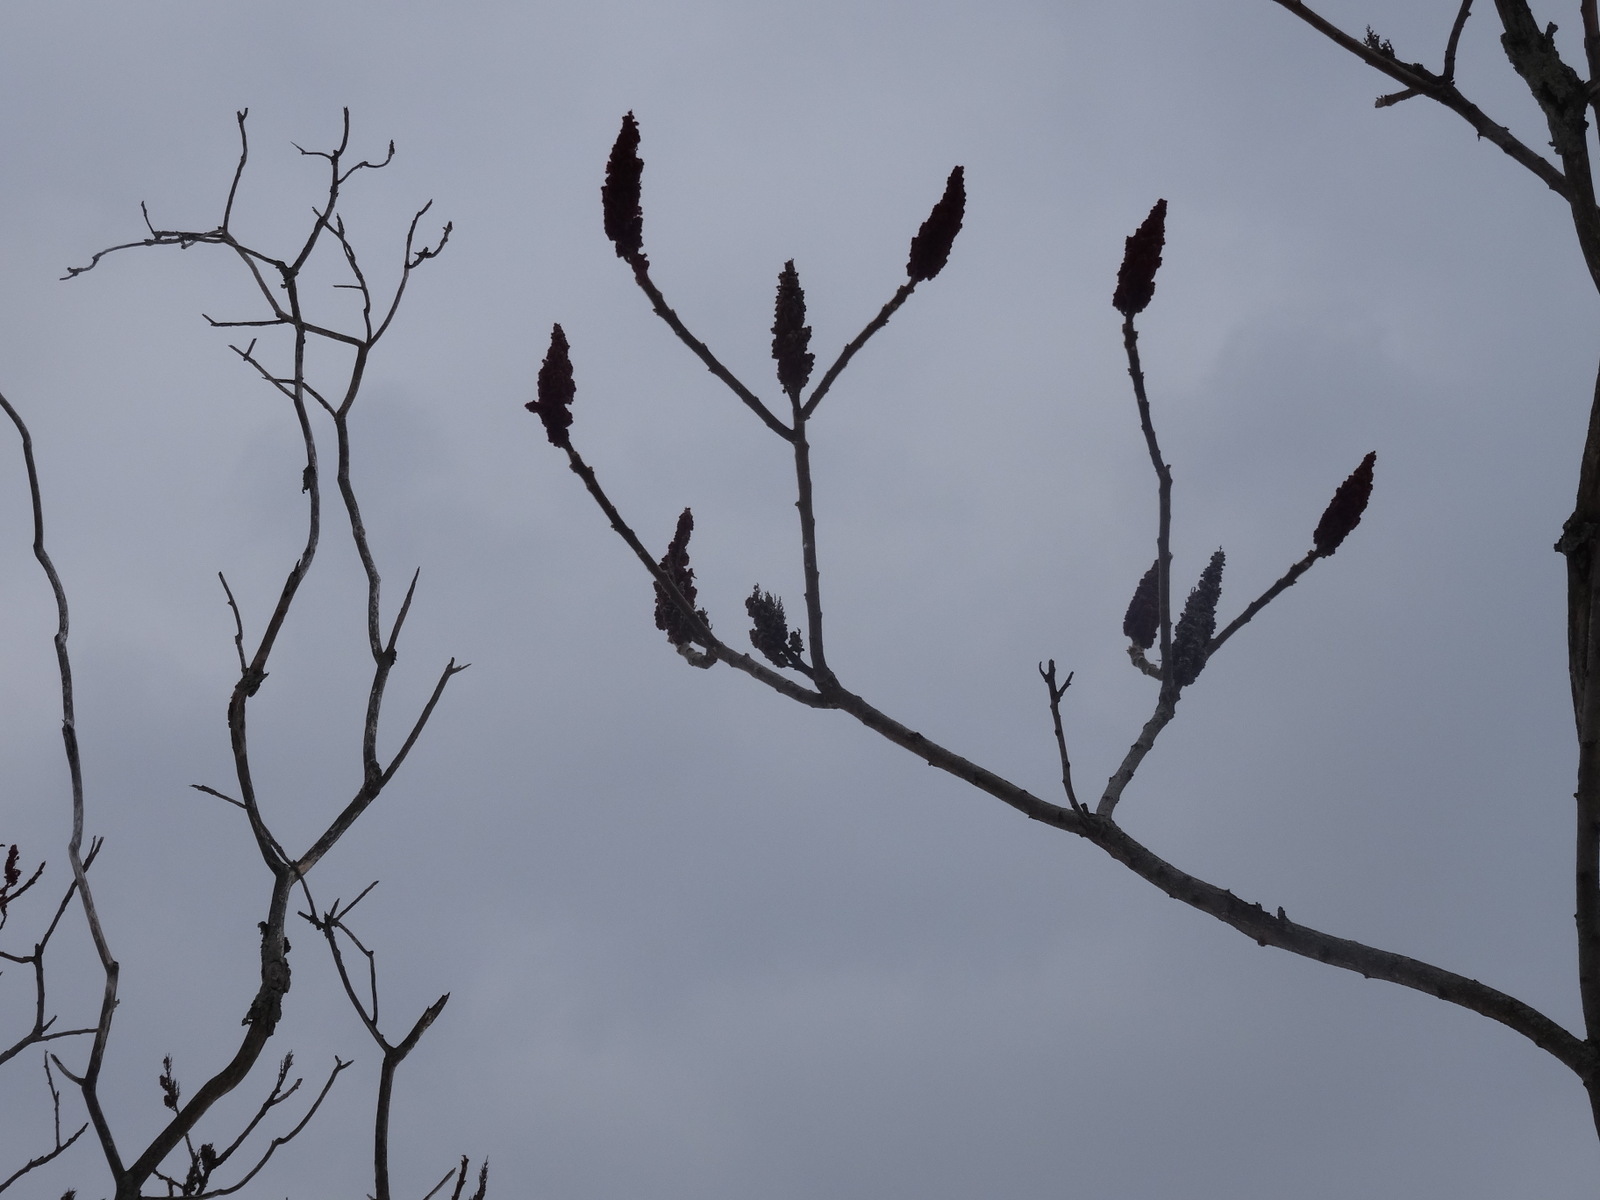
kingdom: Plantae
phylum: Tracheophyta
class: Magnoliopsida
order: Sapindales
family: Anacardiaceae
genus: Rhus
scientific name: Rhus typhina
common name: Staghorn sumac
